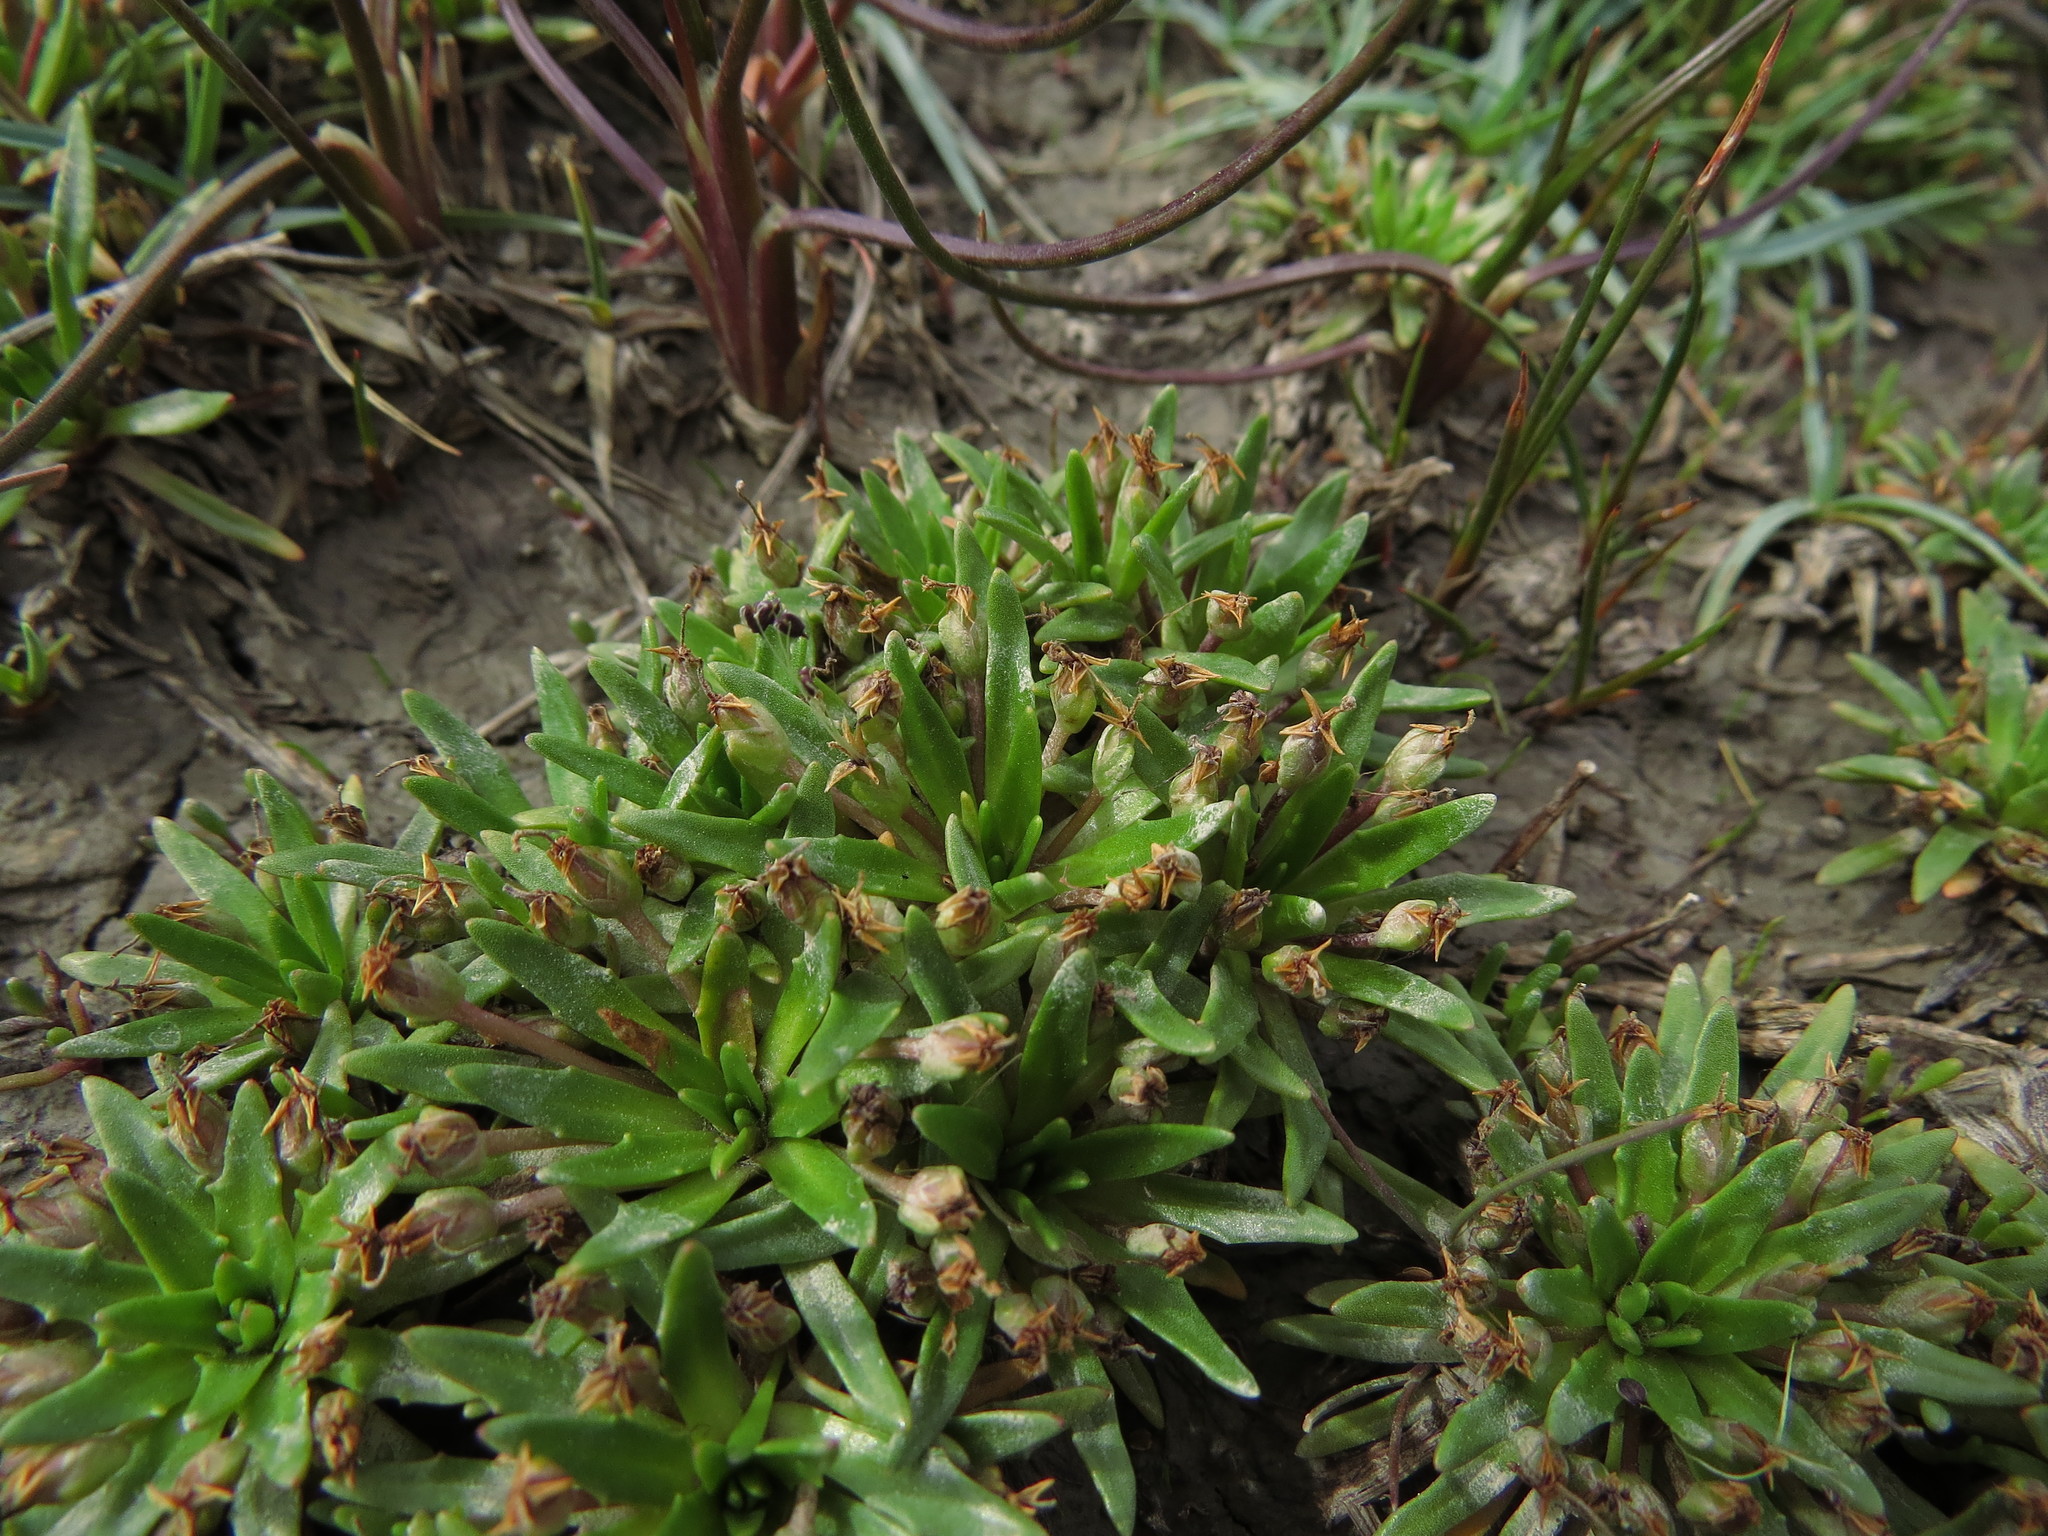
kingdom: Plantae
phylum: Tracheophyta
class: Magnoliopsida
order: Lamiales
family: Plantaginaceae
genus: Plantago
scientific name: Plantago uniglumis
